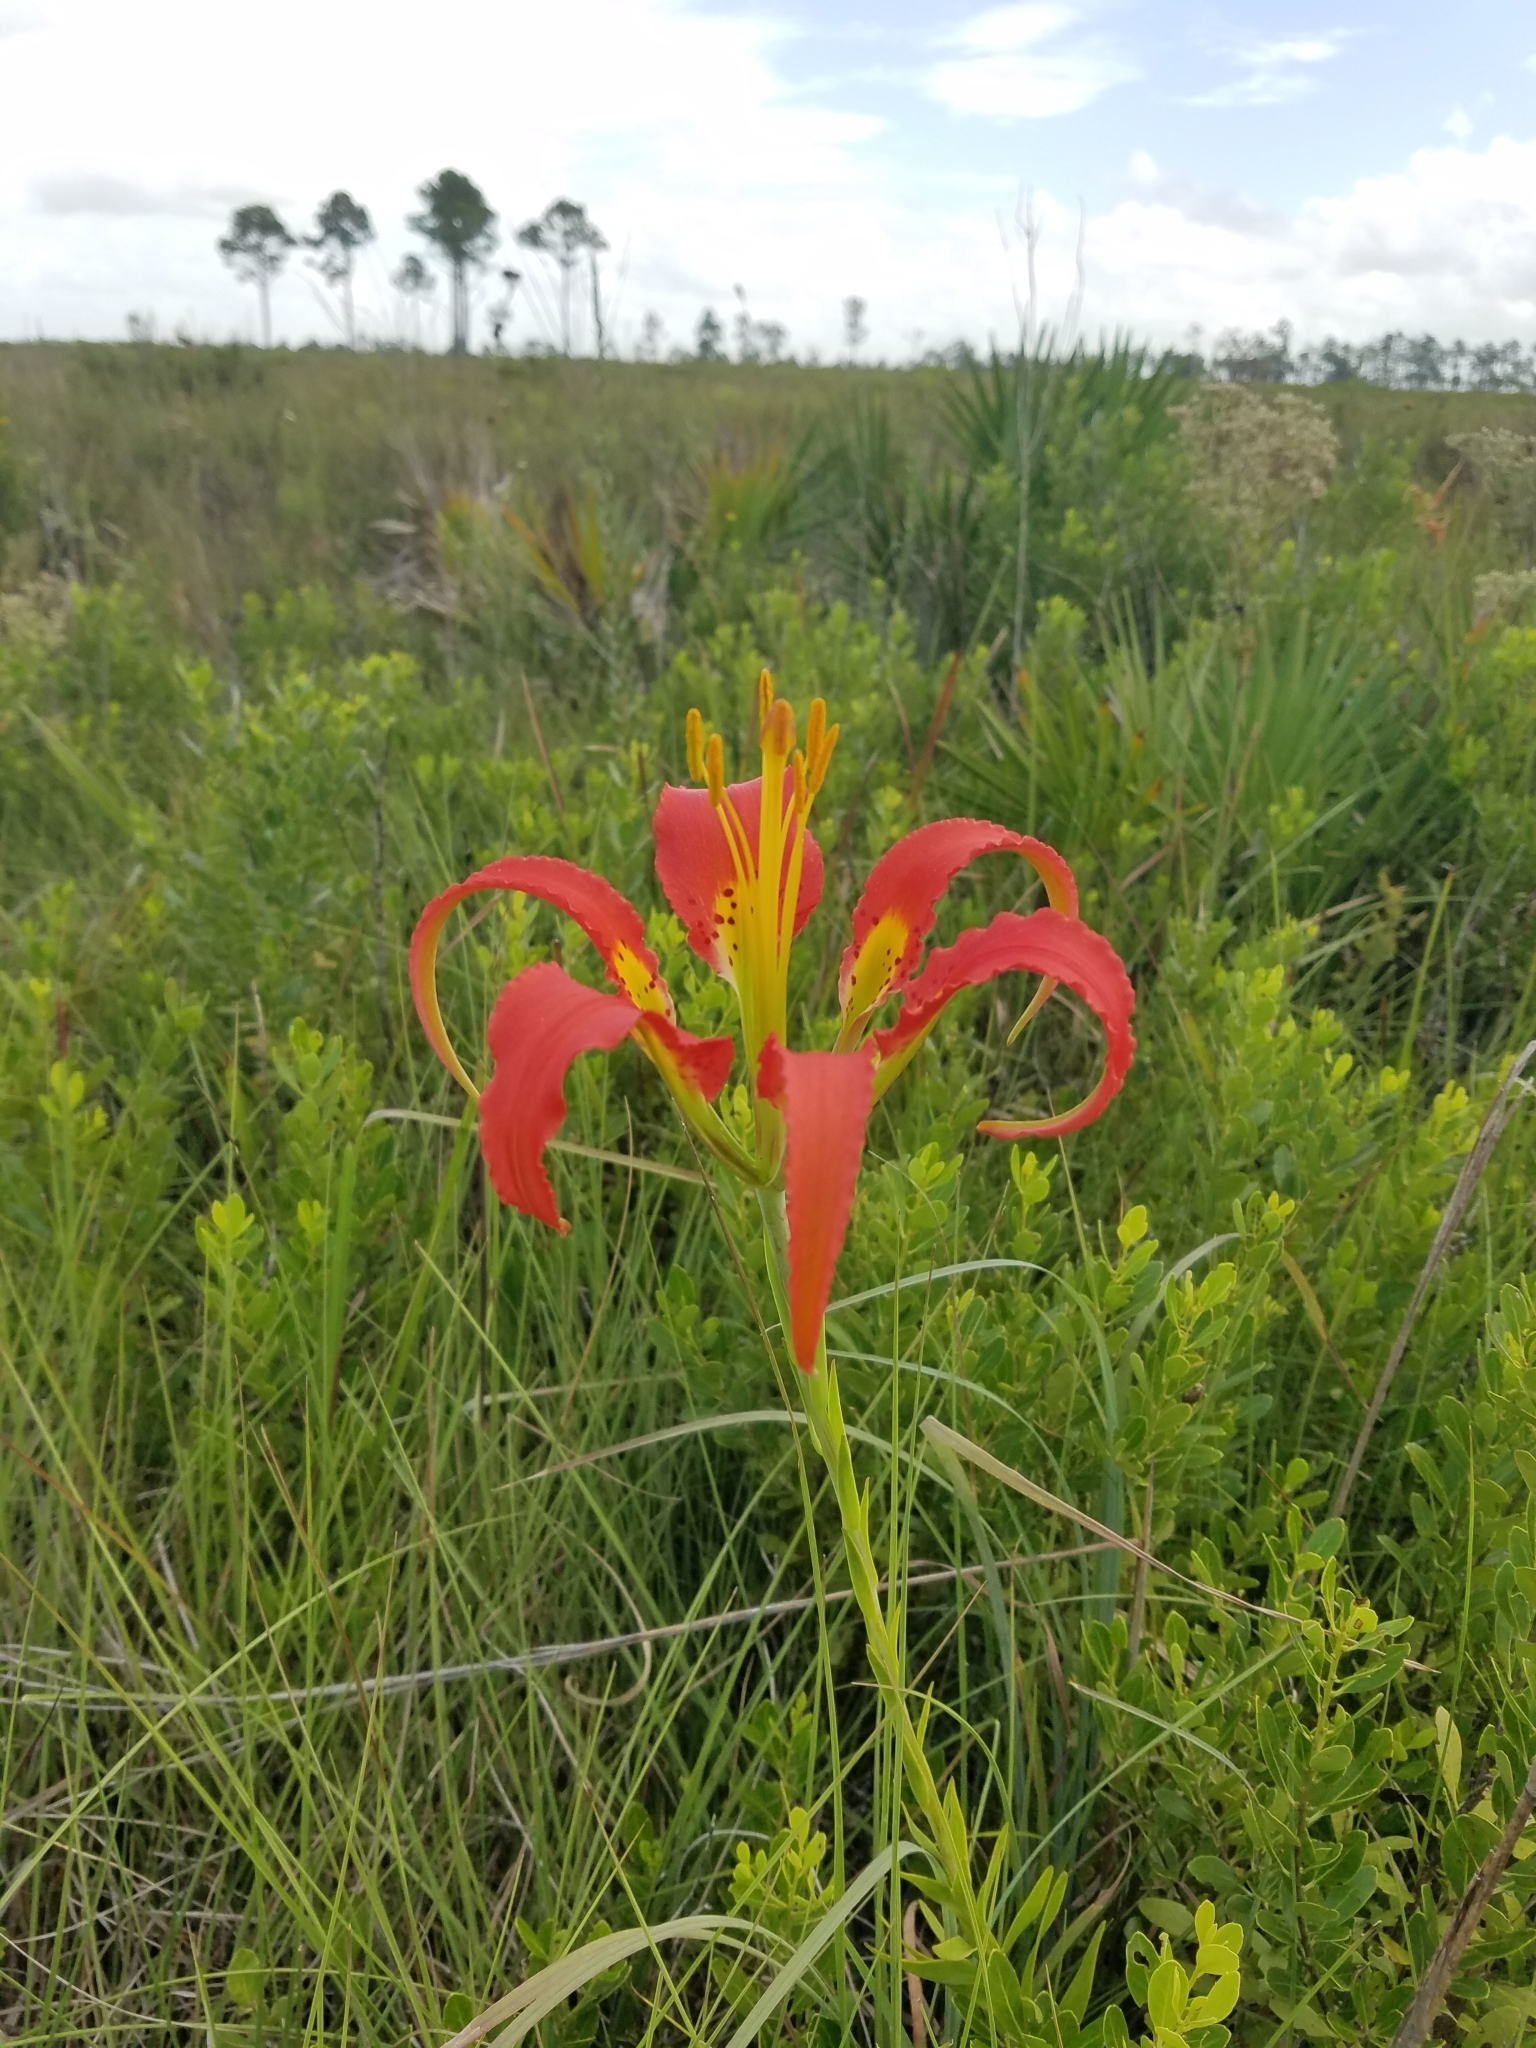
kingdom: Plantae
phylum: Tracheophyta
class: Liliopsida
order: Liliales
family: Liliaceae
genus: Lilium
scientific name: Lilium catesbaei
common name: Catesby's lily
